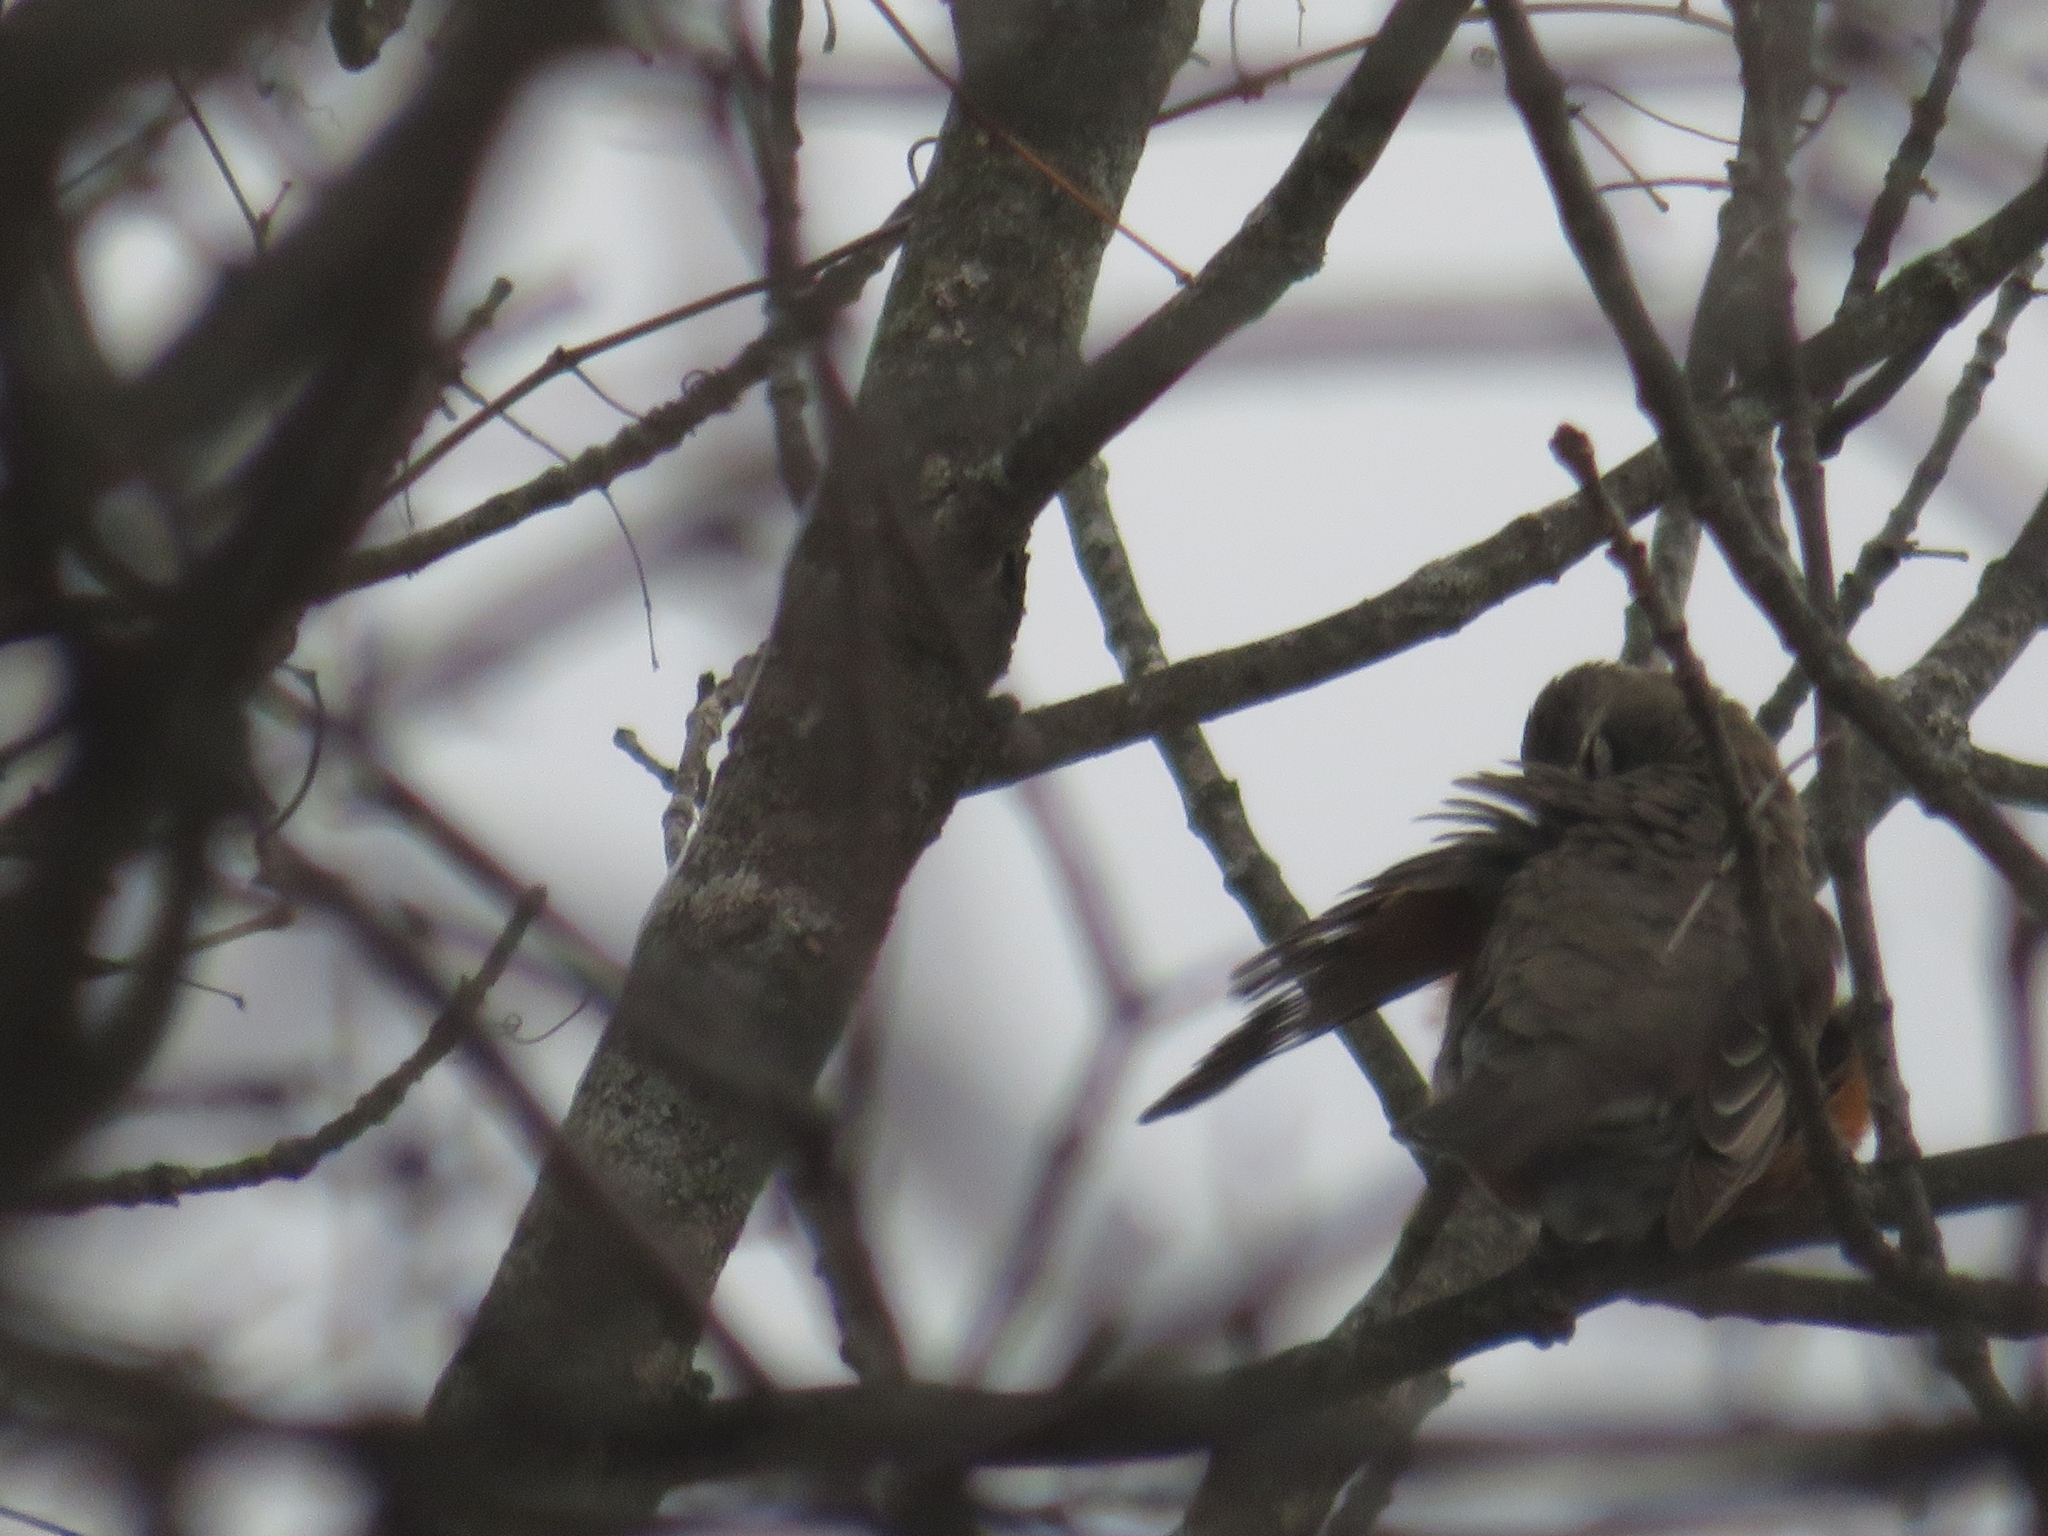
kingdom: Animalia
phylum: Chordata
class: Aves
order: Passeriformes
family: Turdidae
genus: Turdus
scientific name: Turdus migratorius
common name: American robin
